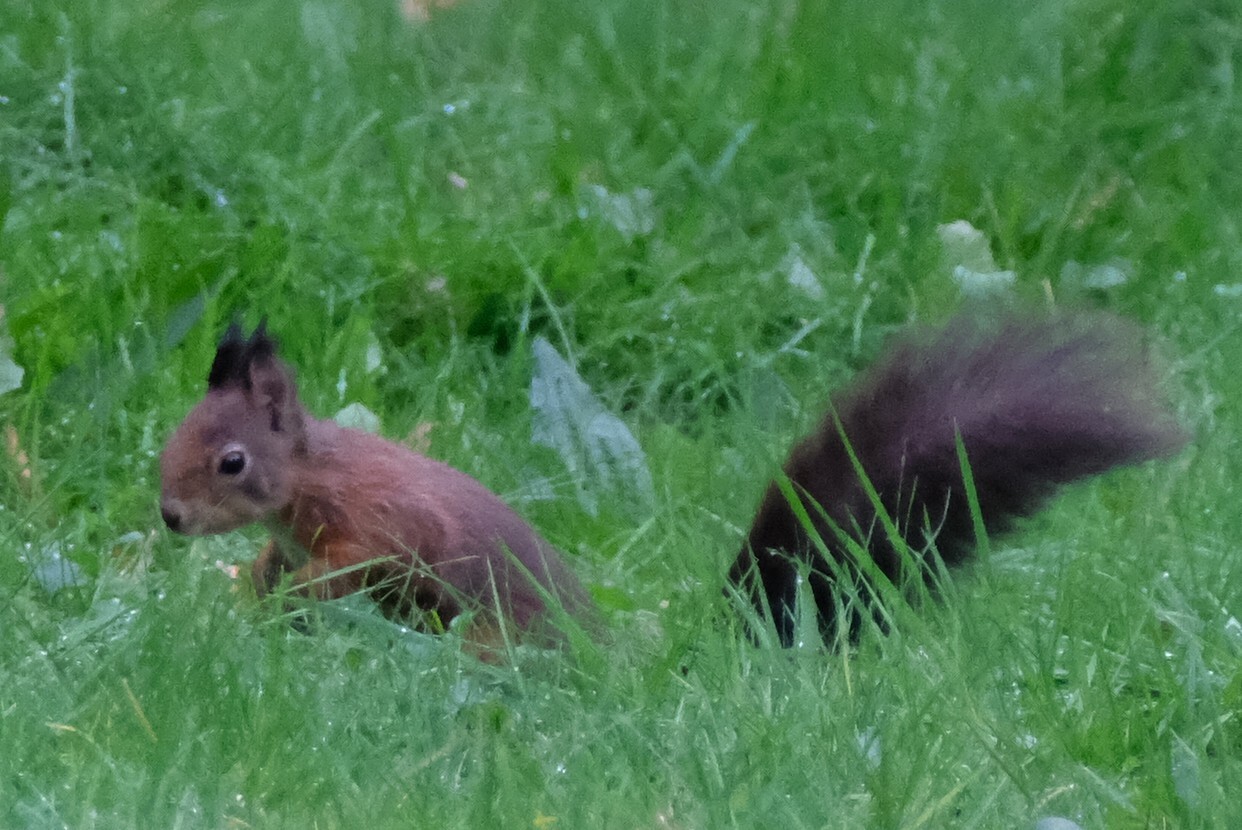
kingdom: Animalia
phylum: Chordata
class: Mammalia
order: Rodentia
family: Sciuridae
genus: Sciurus
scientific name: Sciurus vulgaris
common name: Eurasian red squirrel
